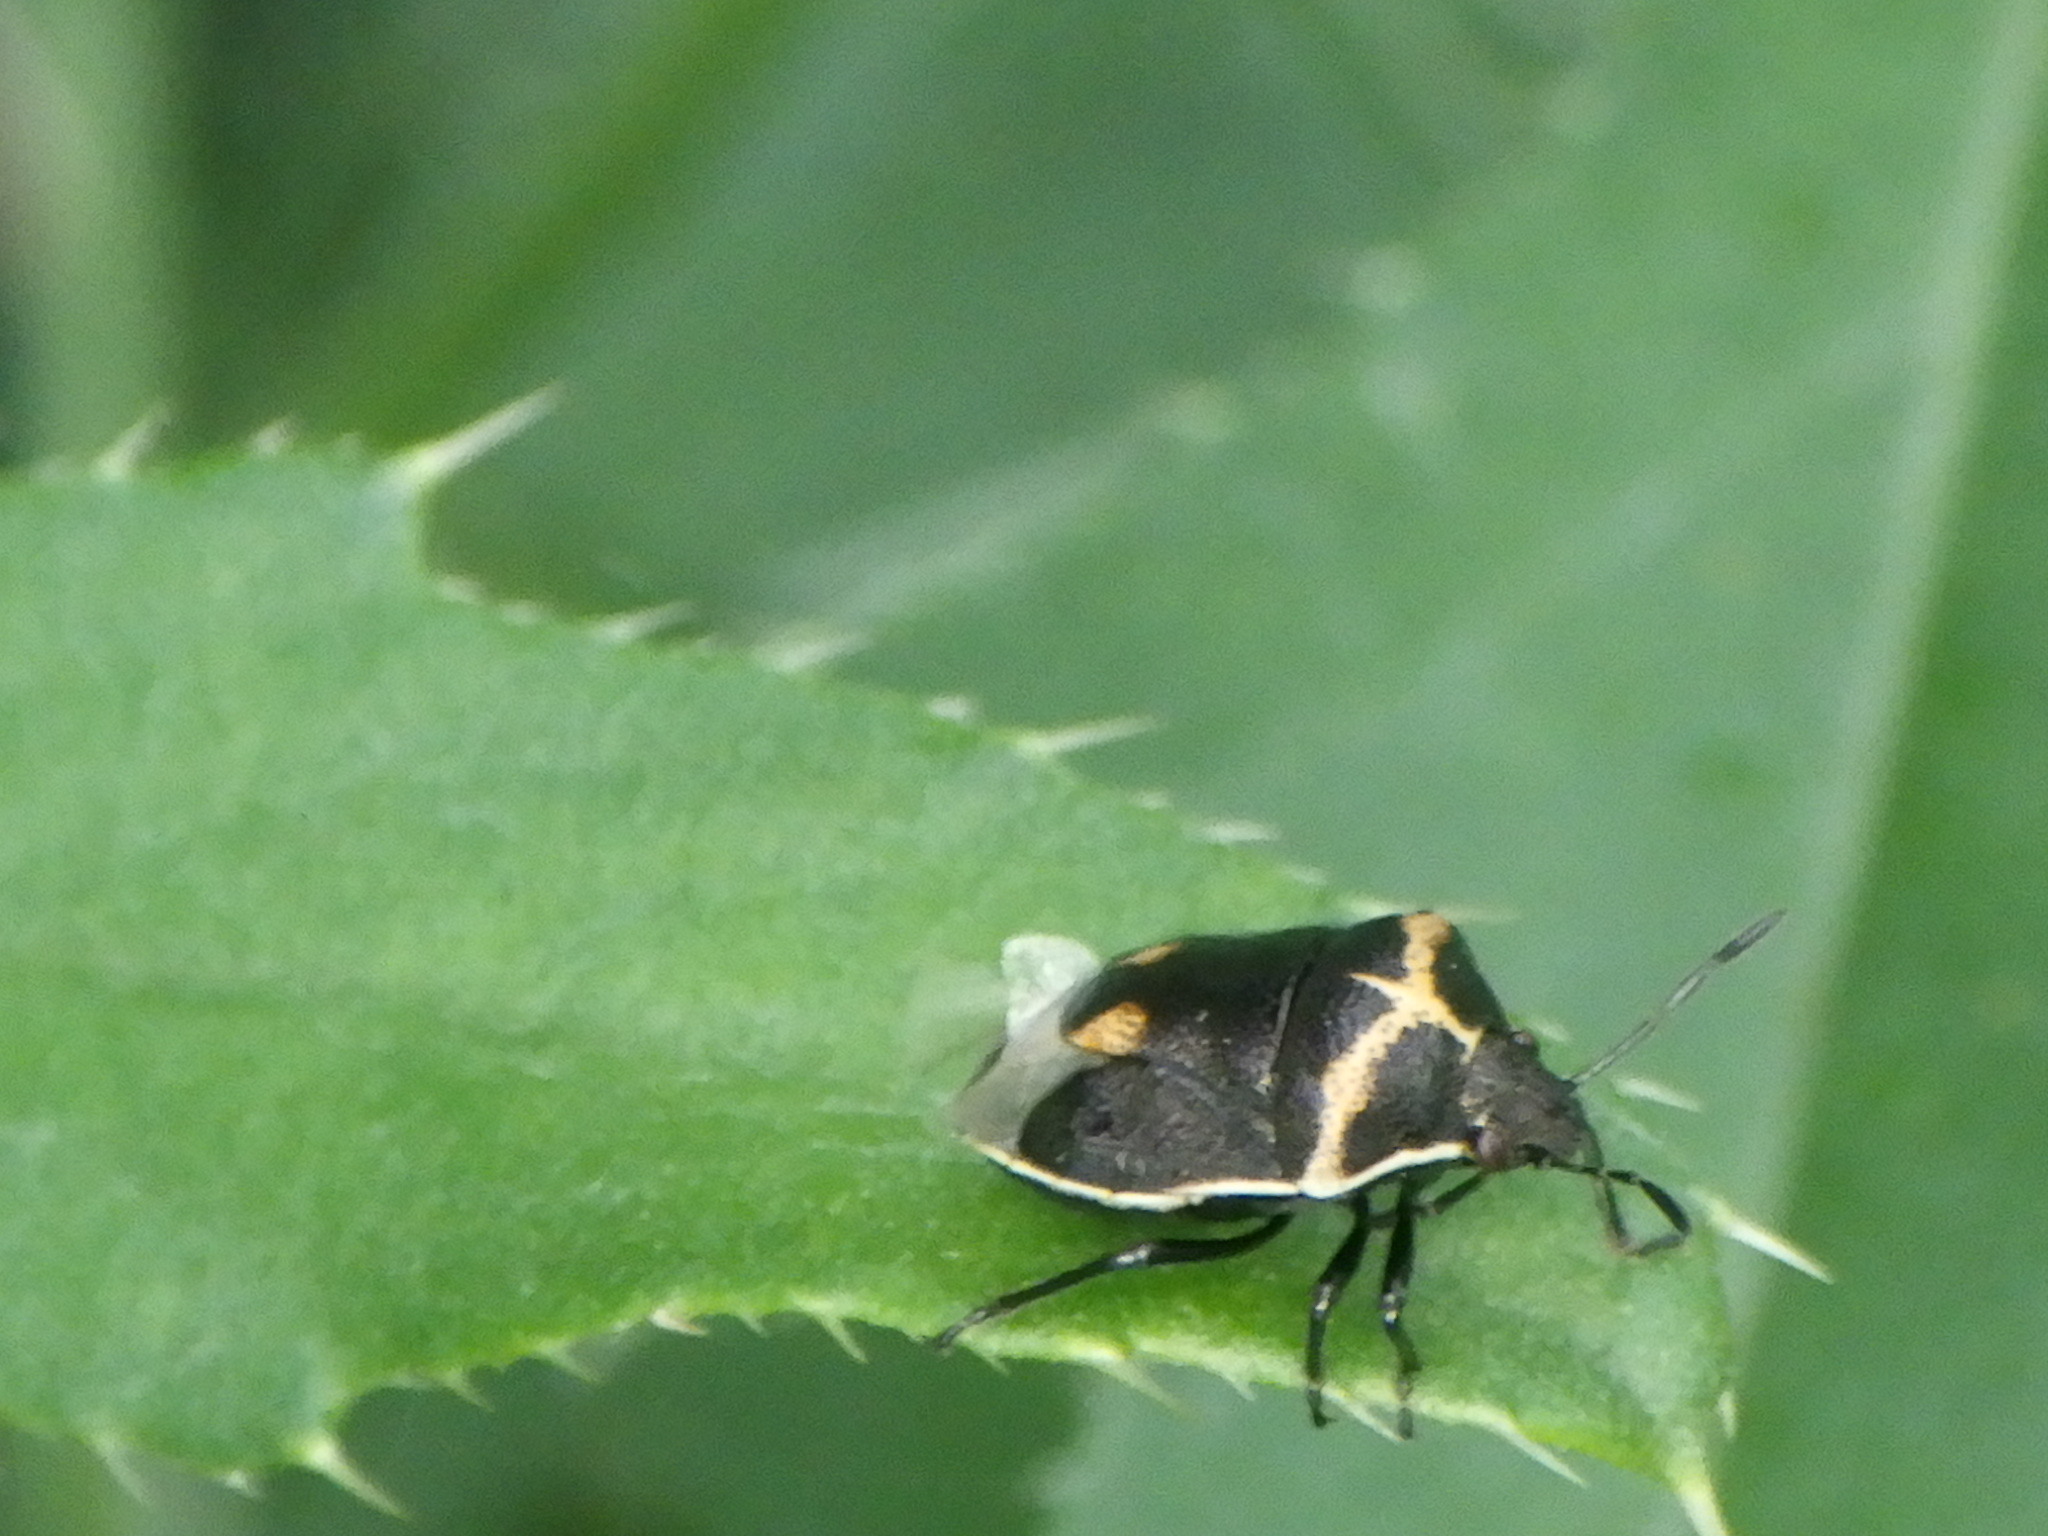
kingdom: Animalia
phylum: Arthropoda
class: Insecta
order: Hemiptera
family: Pentatomidae
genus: Cosmopepla
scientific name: Cosmopepla lintneriana
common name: Twice-stabbed stink bug
